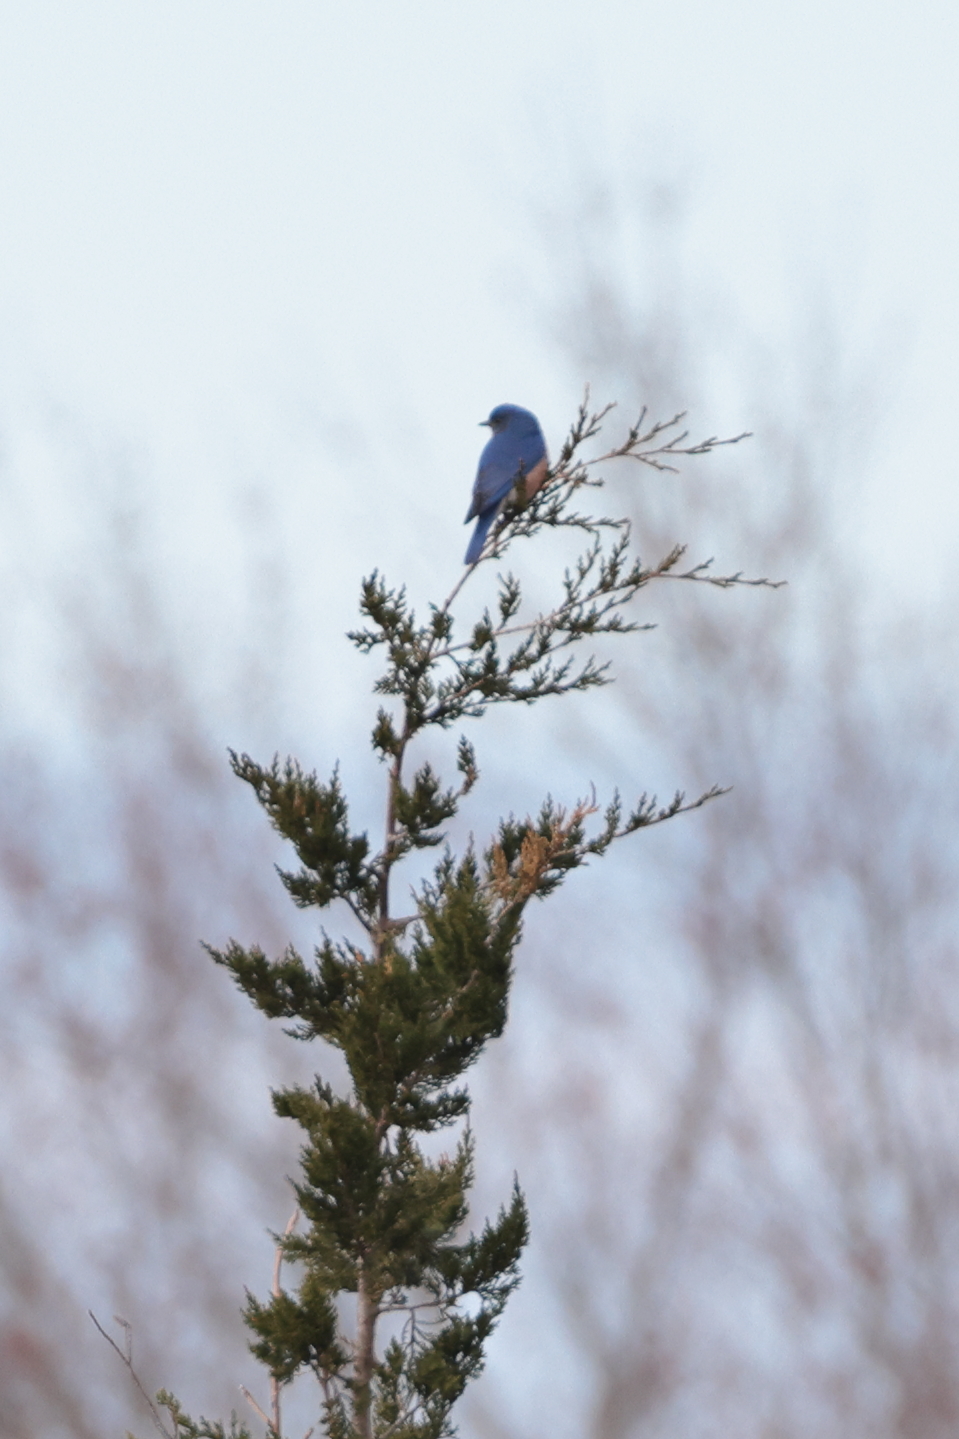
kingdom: Animalia
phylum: Chordata
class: Aves
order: Passeriformes
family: Turdidae
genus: Sialia
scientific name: Sialia sialis
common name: Eastern bluebird
